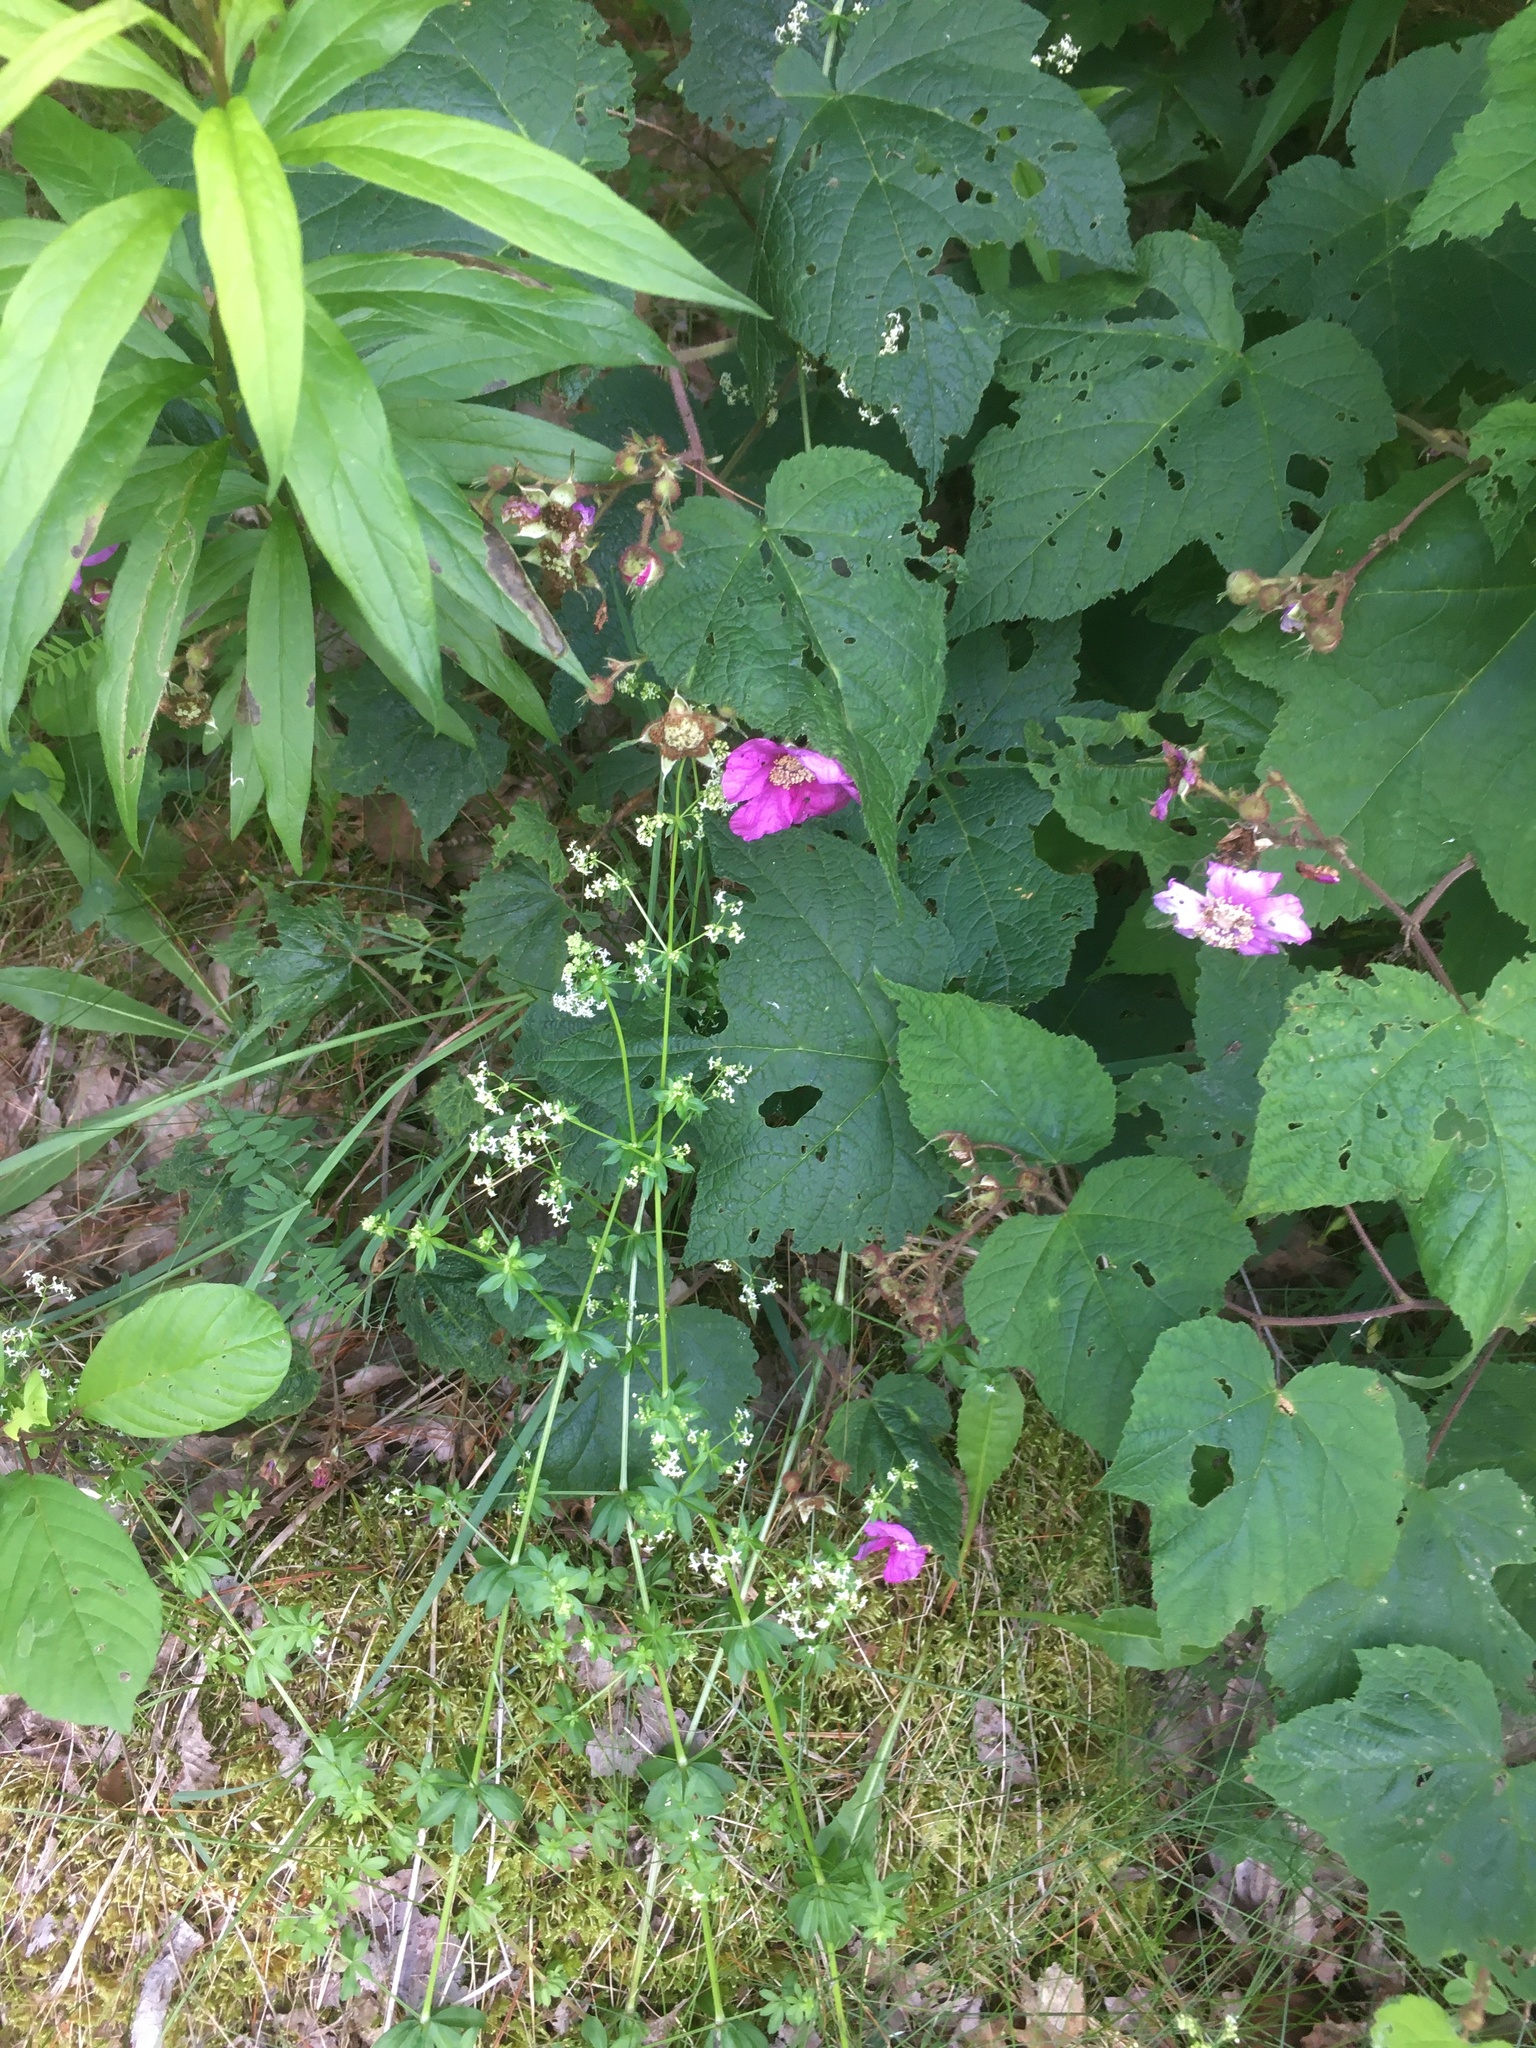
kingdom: Plantae
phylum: Tracheophyta
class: Magnoliopsida
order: Rosales
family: Rosaceae
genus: Rubus
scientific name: Rubus odoratus
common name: Purple-flowered raspberry
